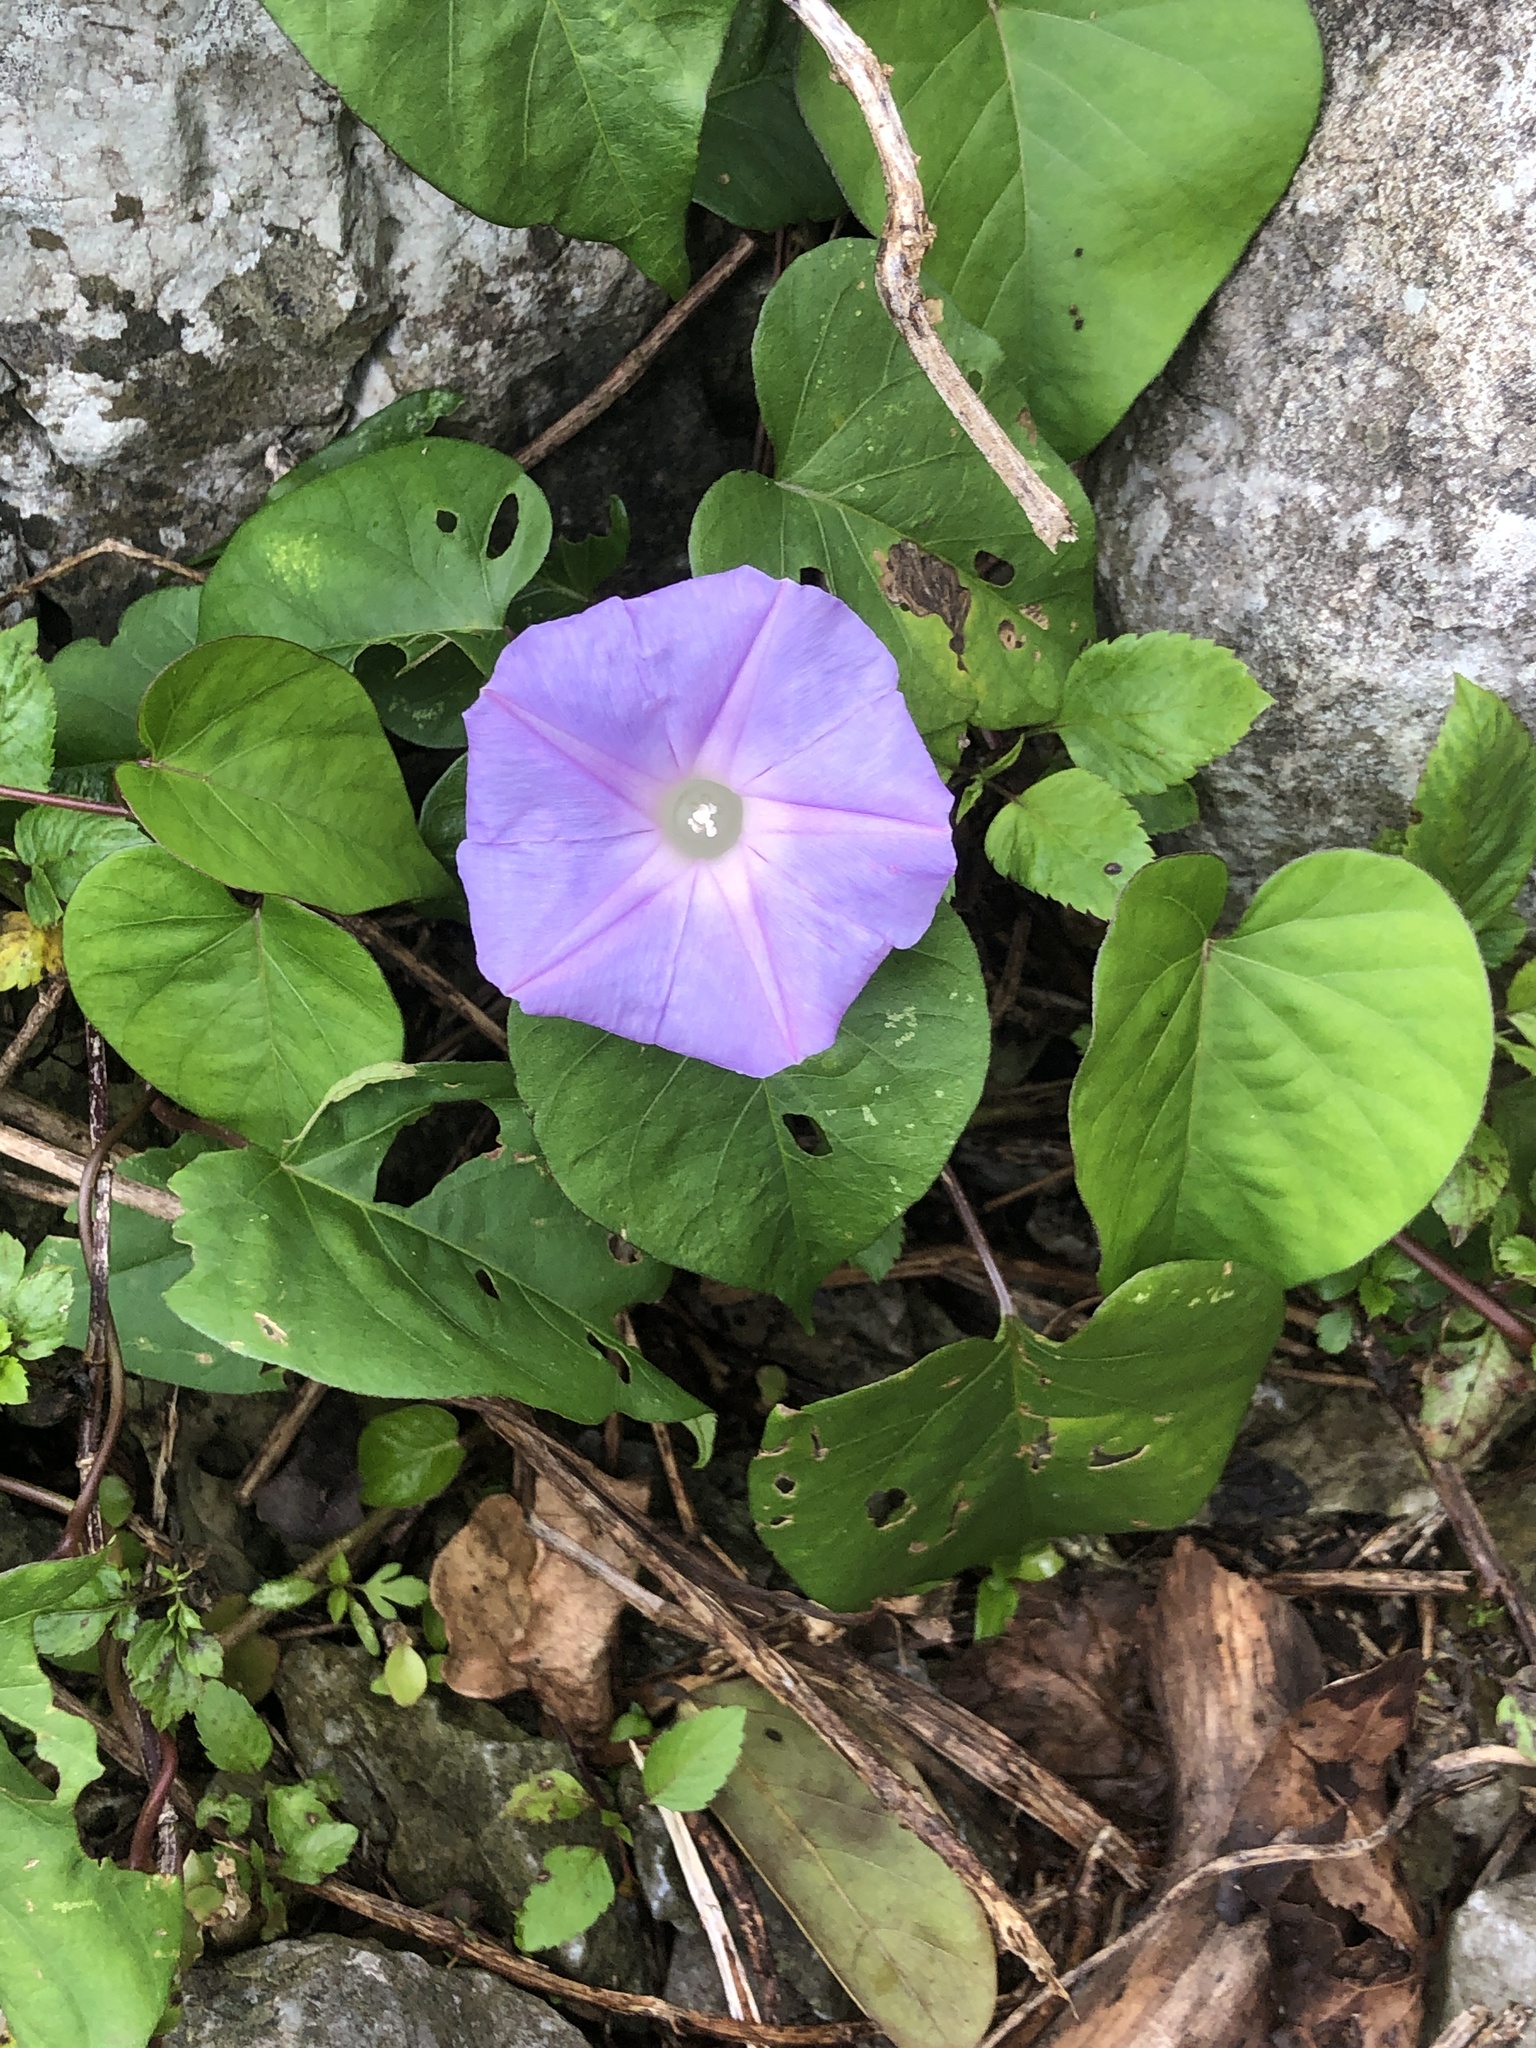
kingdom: Plantae
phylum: Tracheophyta
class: Magnoliopsida
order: Solanales
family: Convolvulaceae
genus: Ipomoea
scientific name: Ipomoea indica
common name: Blue dawnflower
